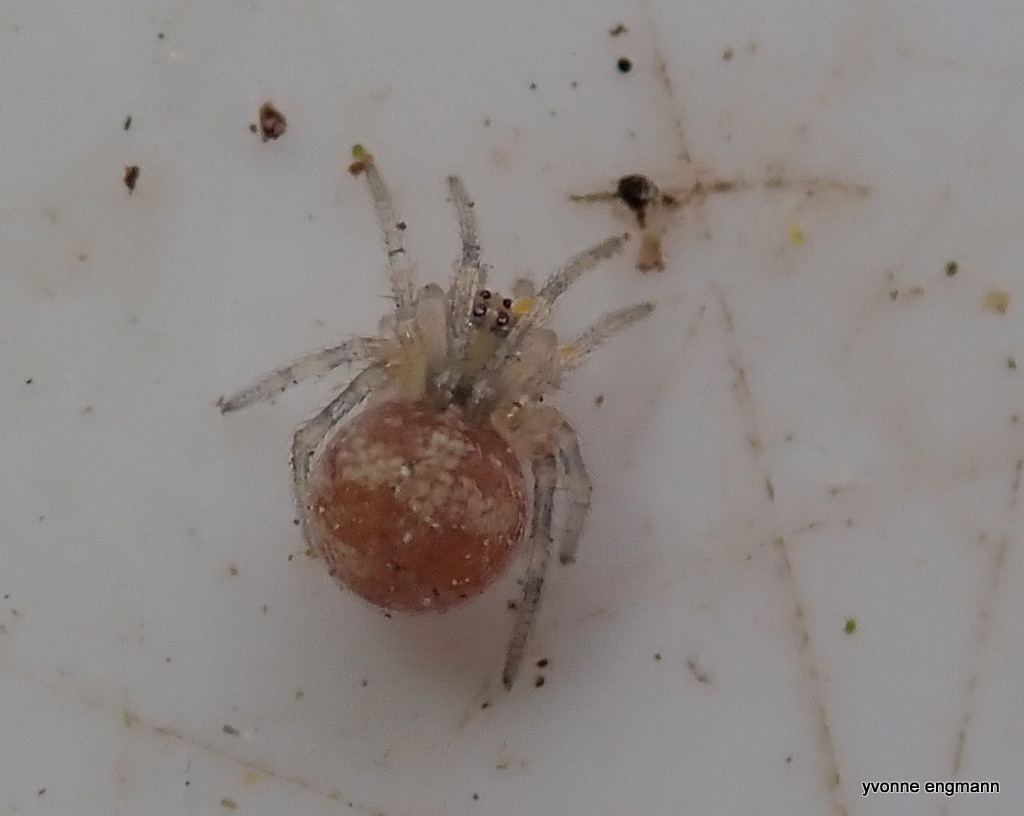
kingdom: Animalia
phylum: Arthropoda
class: Arachnida
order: Araneae
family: Theridiidae
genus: Paidiscura
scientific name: Paidiscura pallens
